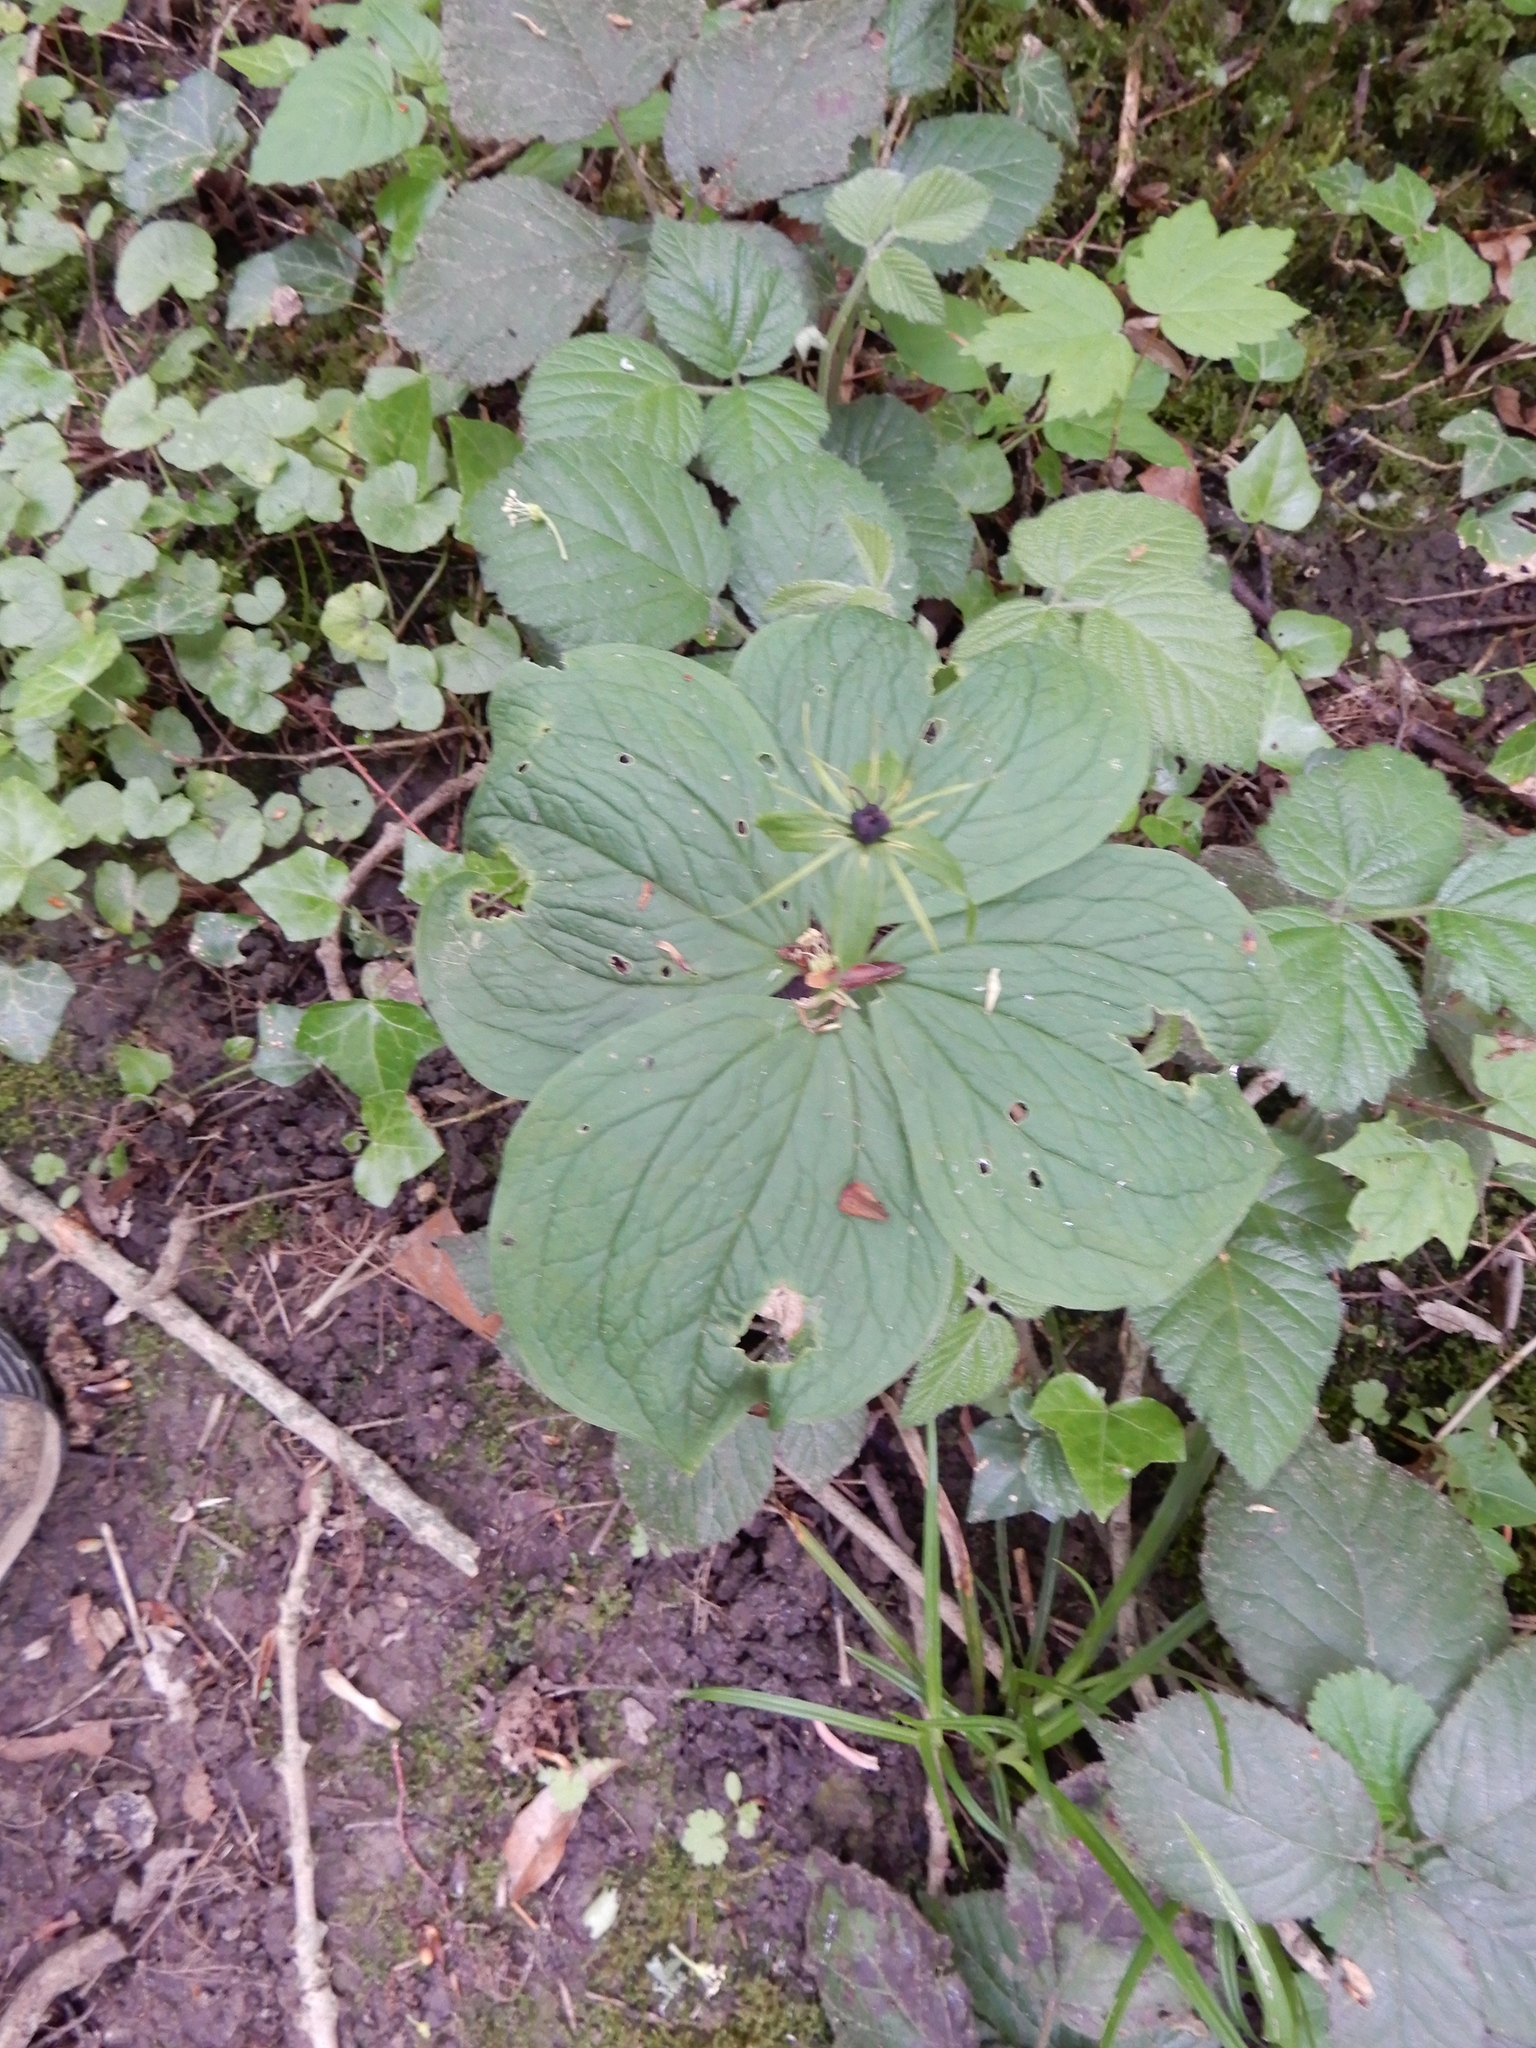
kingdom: Plantae
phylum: Tracheophyta
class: Liliopsida
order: Liliales
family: Melanthiaceae
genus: Paris
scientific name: Paris quadrifolia
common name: Herb-paris
